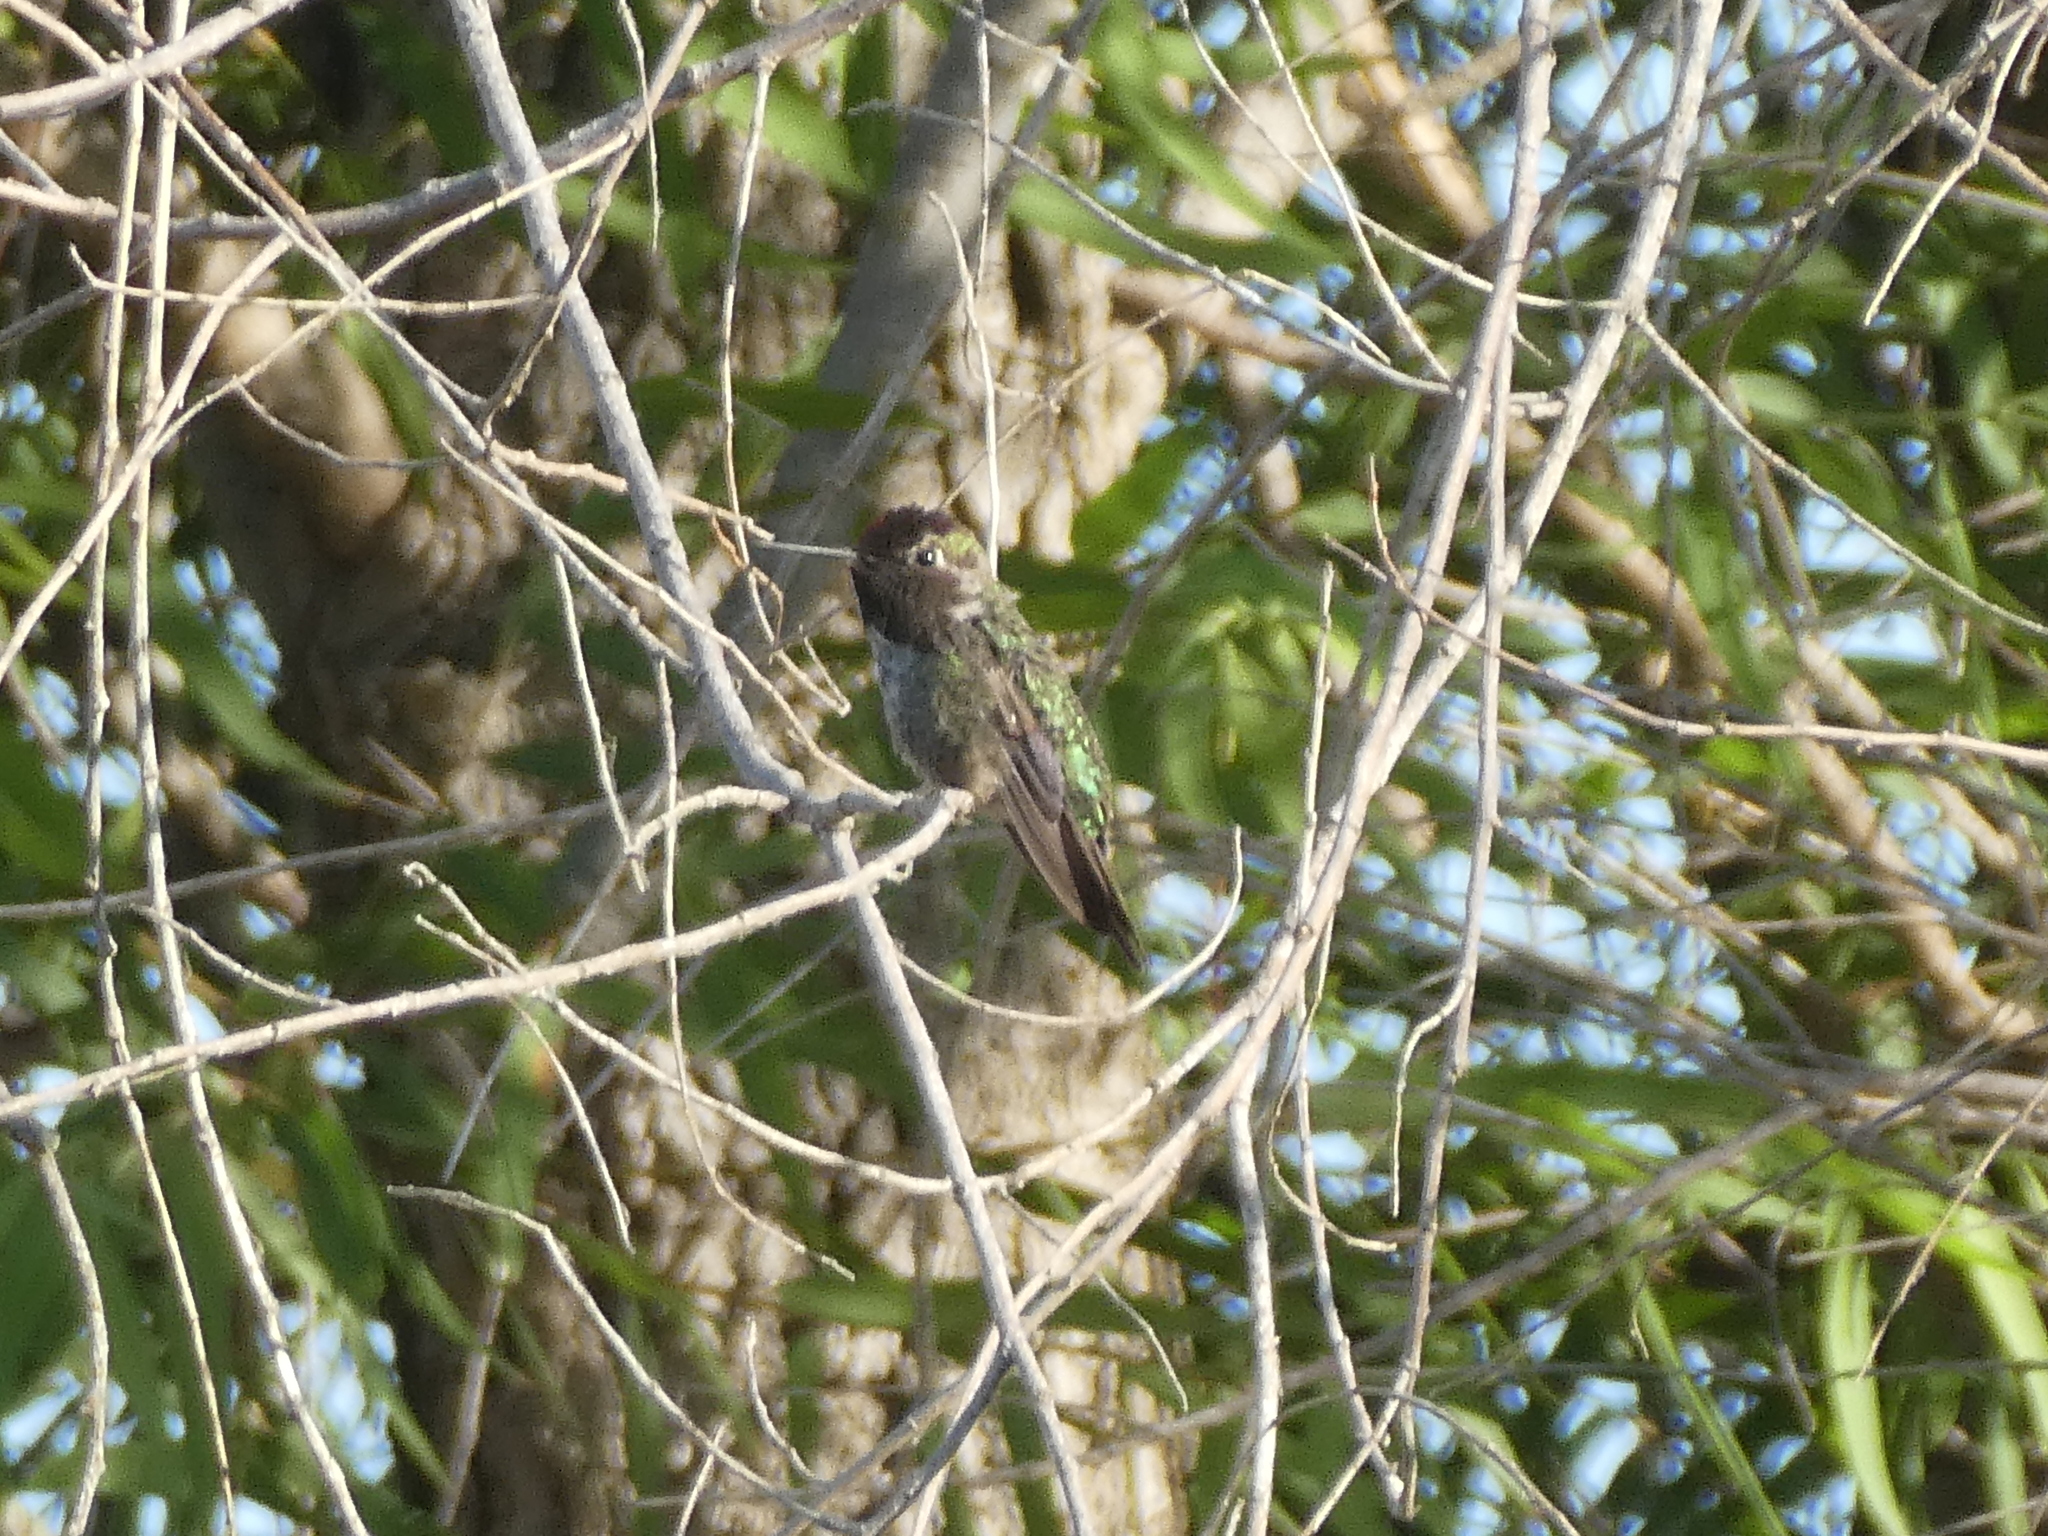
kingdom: Animalia
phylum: Chordata
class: Aves
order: Apodiformes
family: Trochilidae
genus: Calypte
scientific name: Calypte anna
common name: Anna's hummingbird
